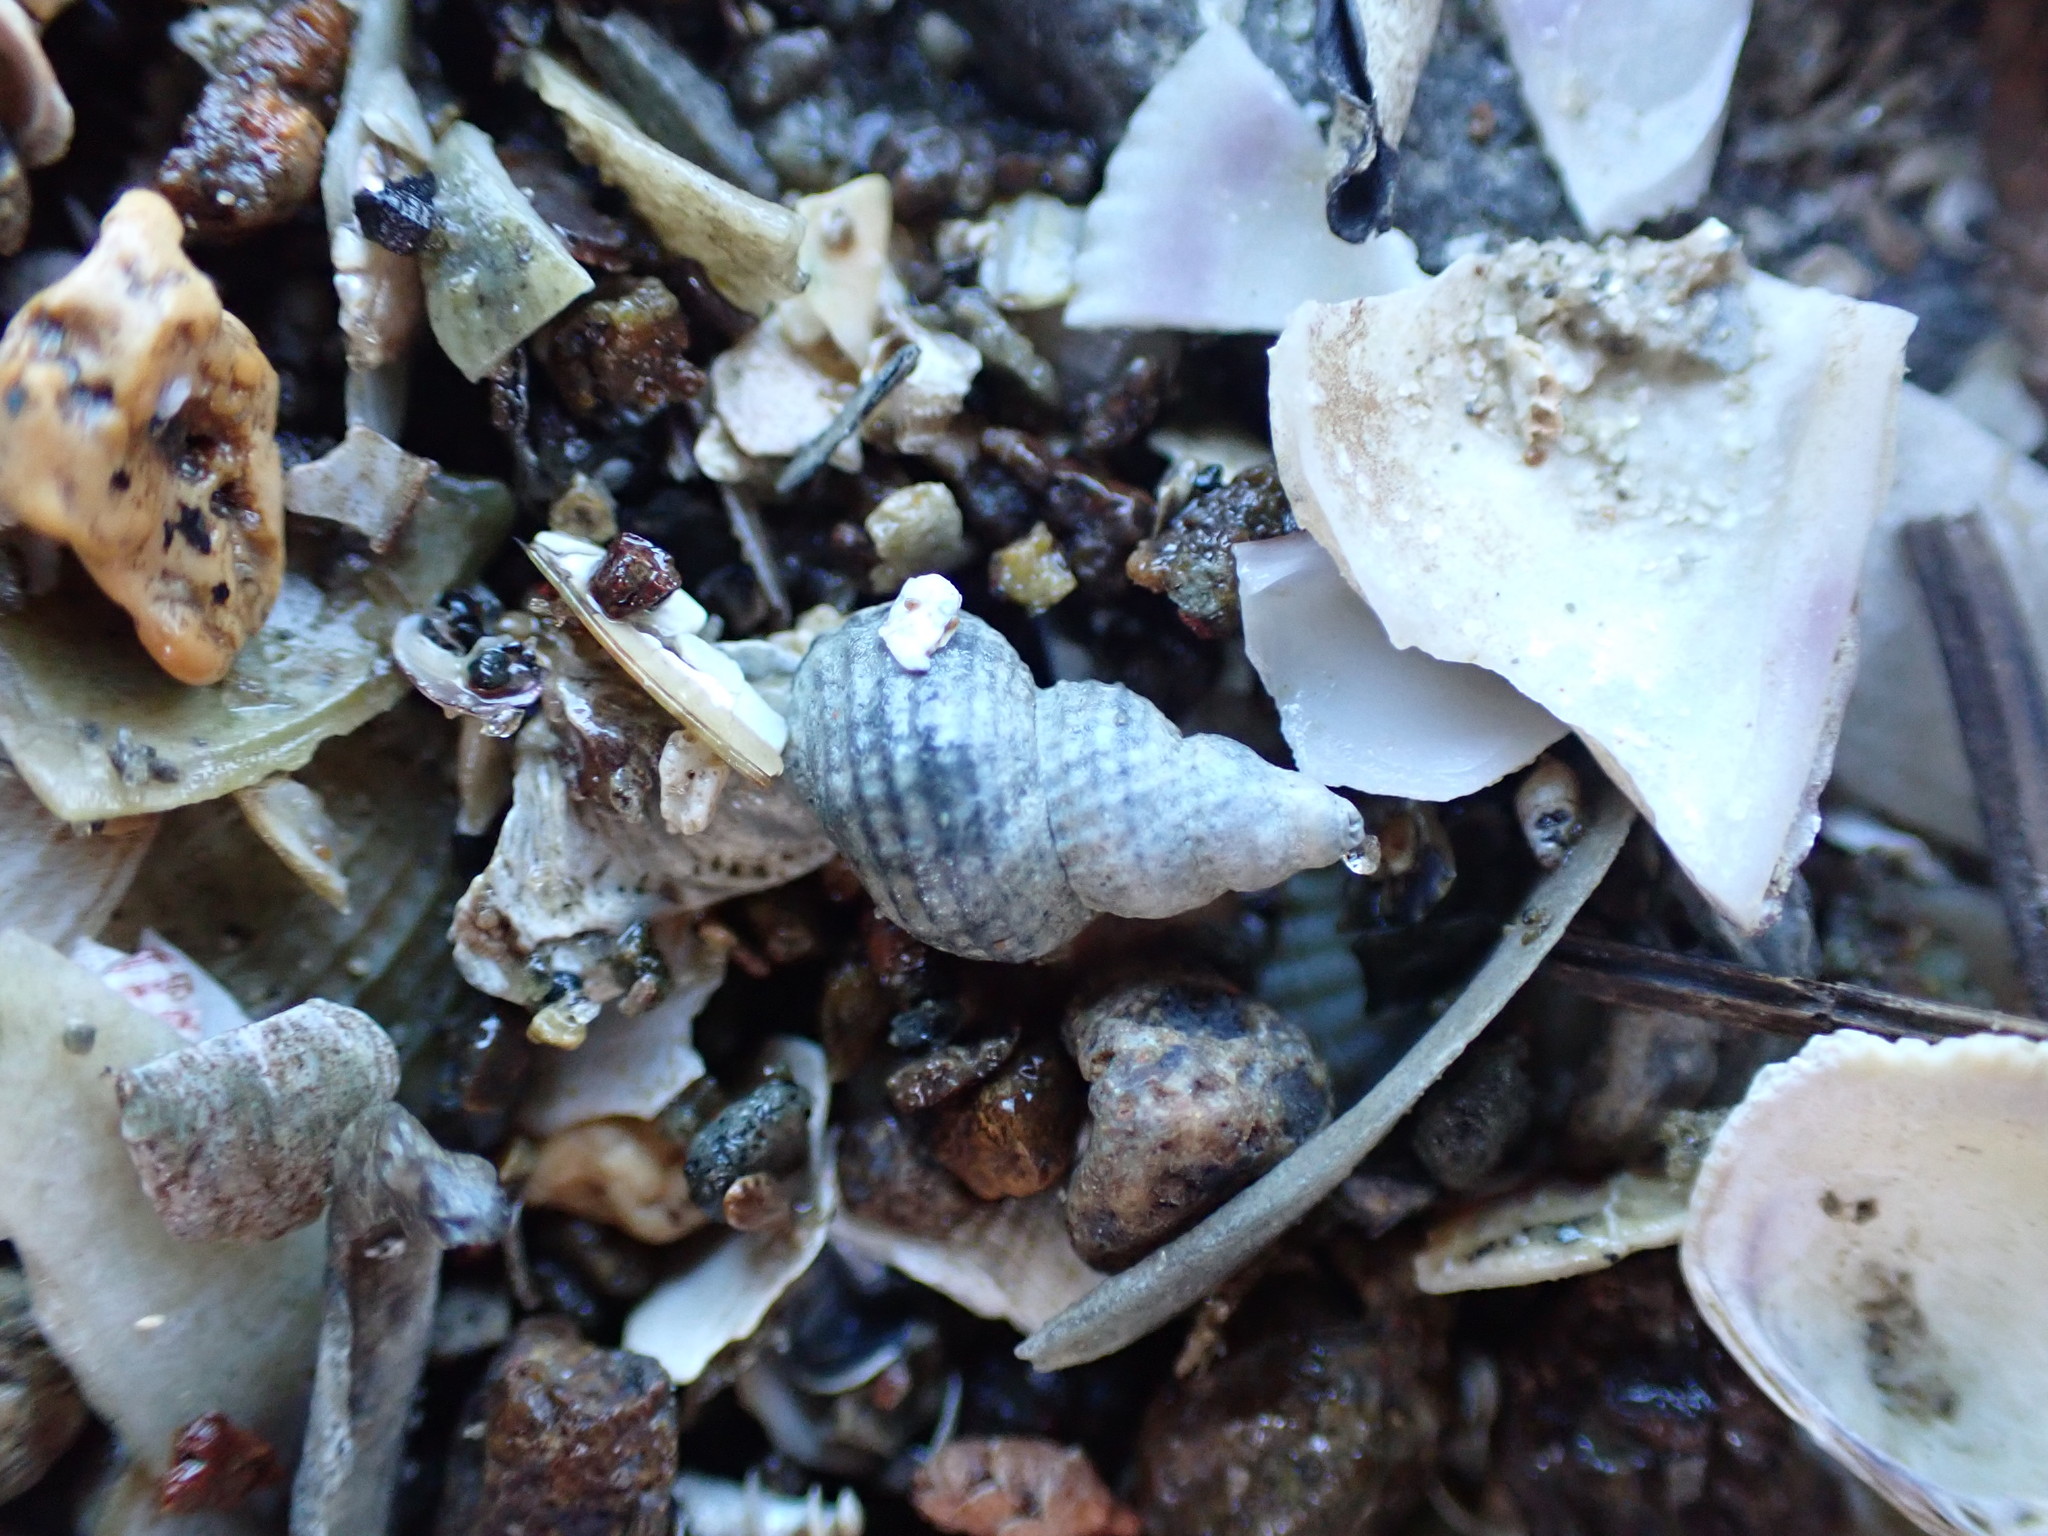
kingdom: Animalia
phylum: Mollusca
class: Gastropoda
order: Littorinimorpha
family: Capulidae
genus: Trichosirius
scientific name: Trichosirius inornatus
